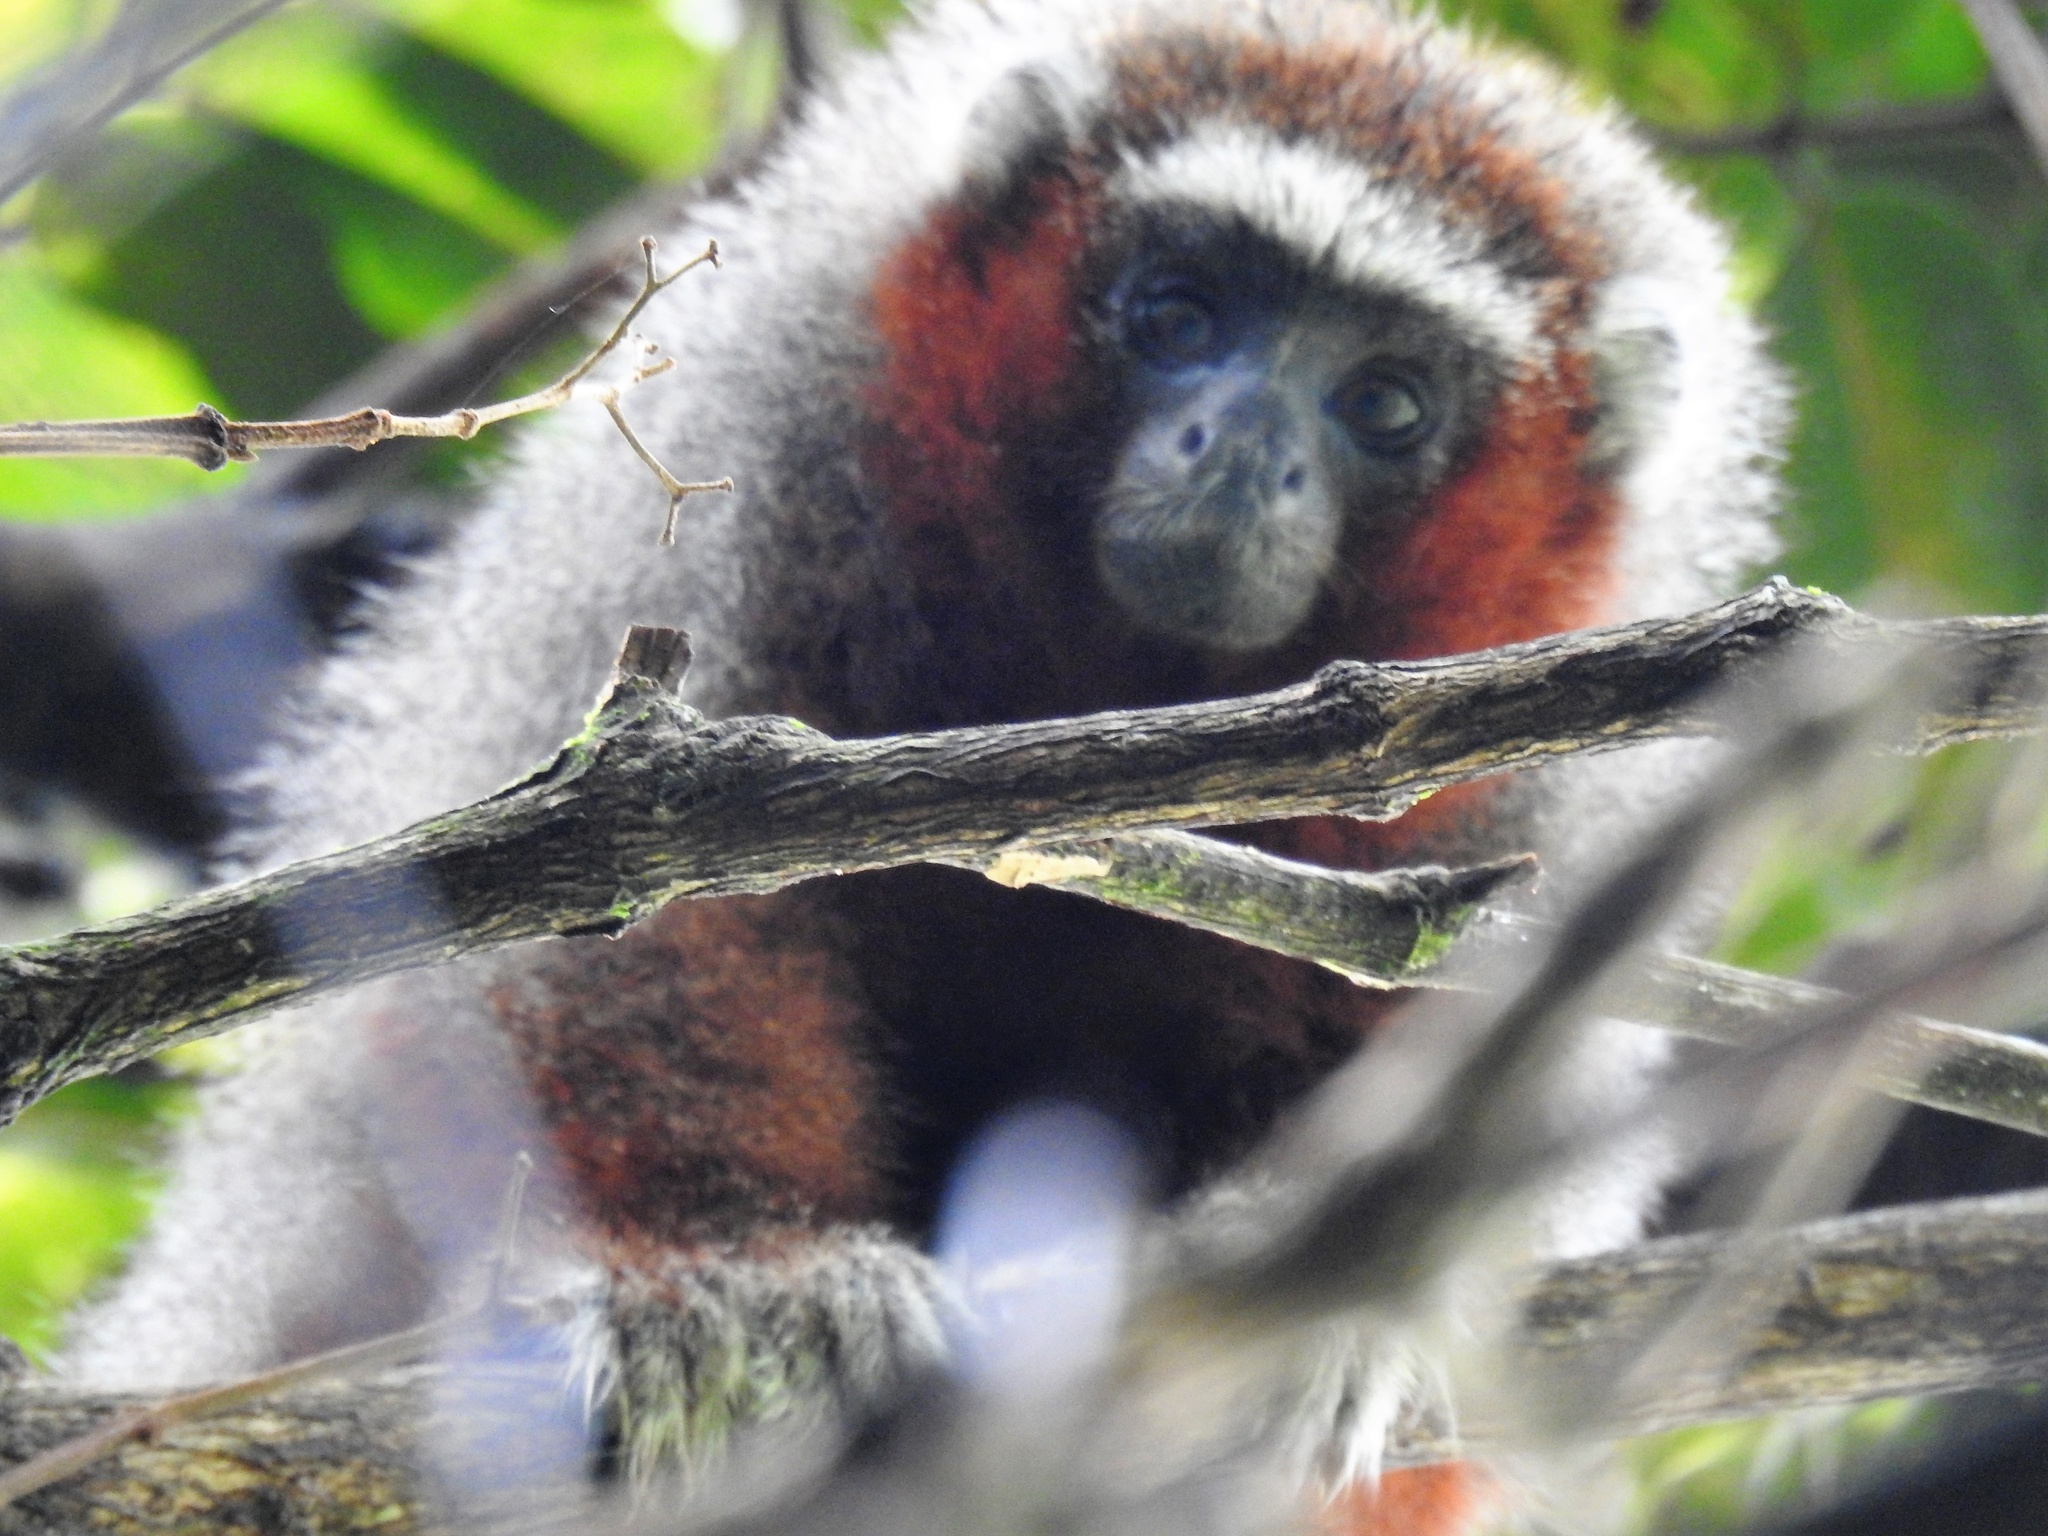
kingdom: Animalia
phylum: Chordata
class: Mammalia
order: Primates
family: Pitheciidae
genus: Plecturocebus
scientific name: Plecturocebus ornatus
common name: Ornate titi
